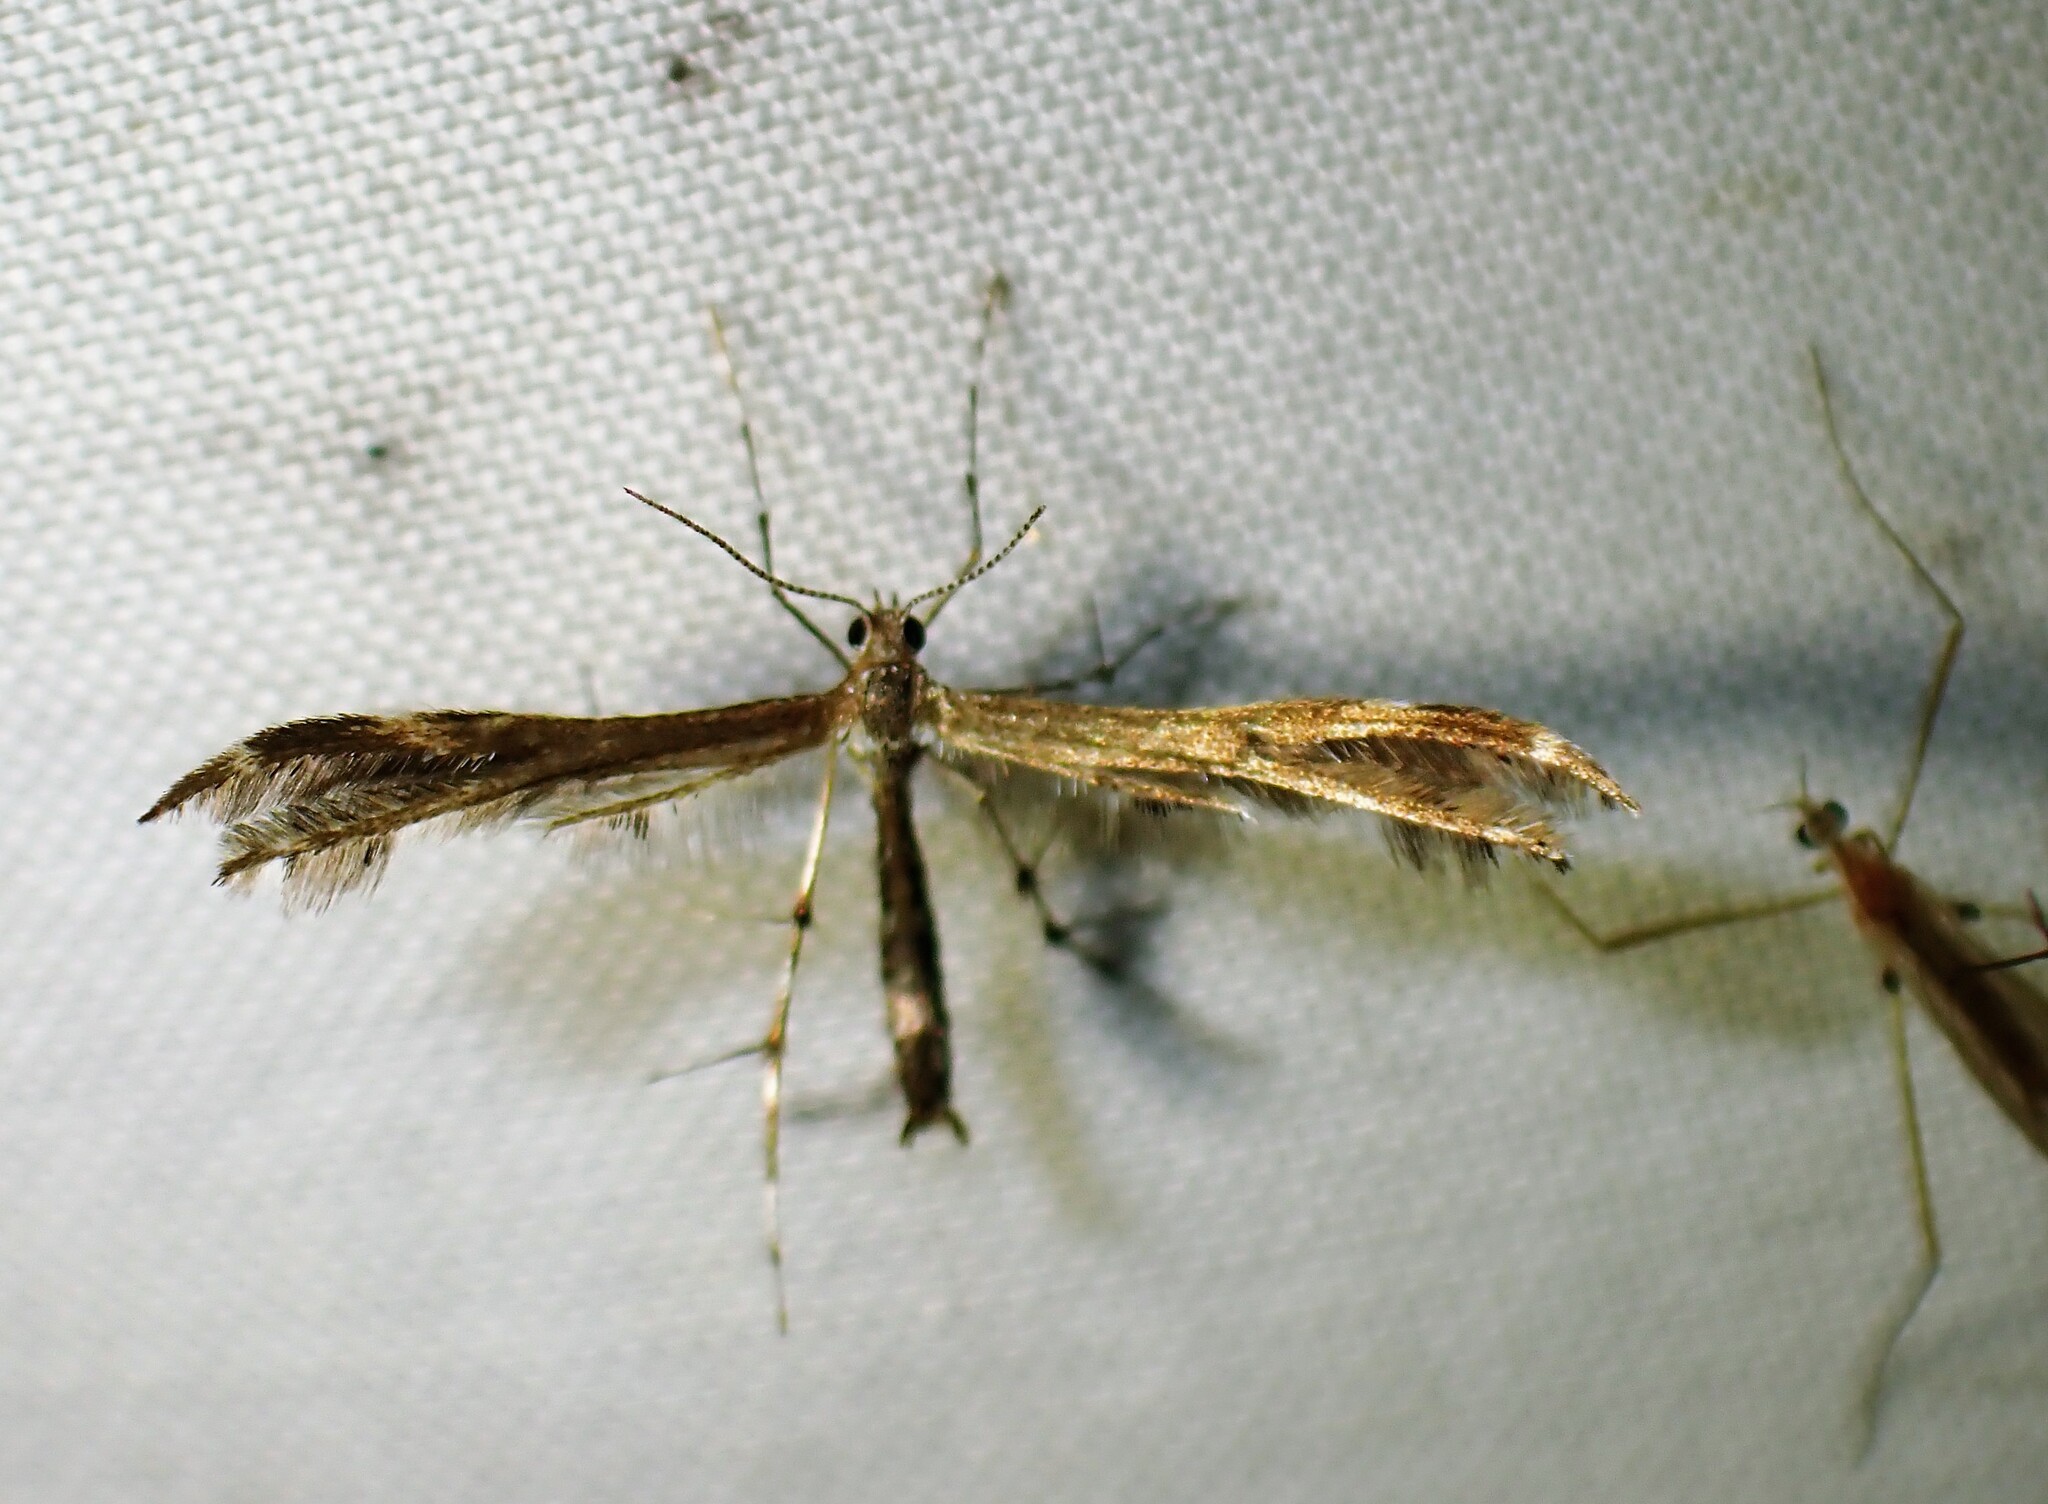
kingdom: Animalia
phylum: Arthropoda
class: Insecta
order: Lepidoptera
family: Pterophoridae
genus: Dejongia
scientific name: Dejongia lobidactylus
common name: Lobed plume moth
